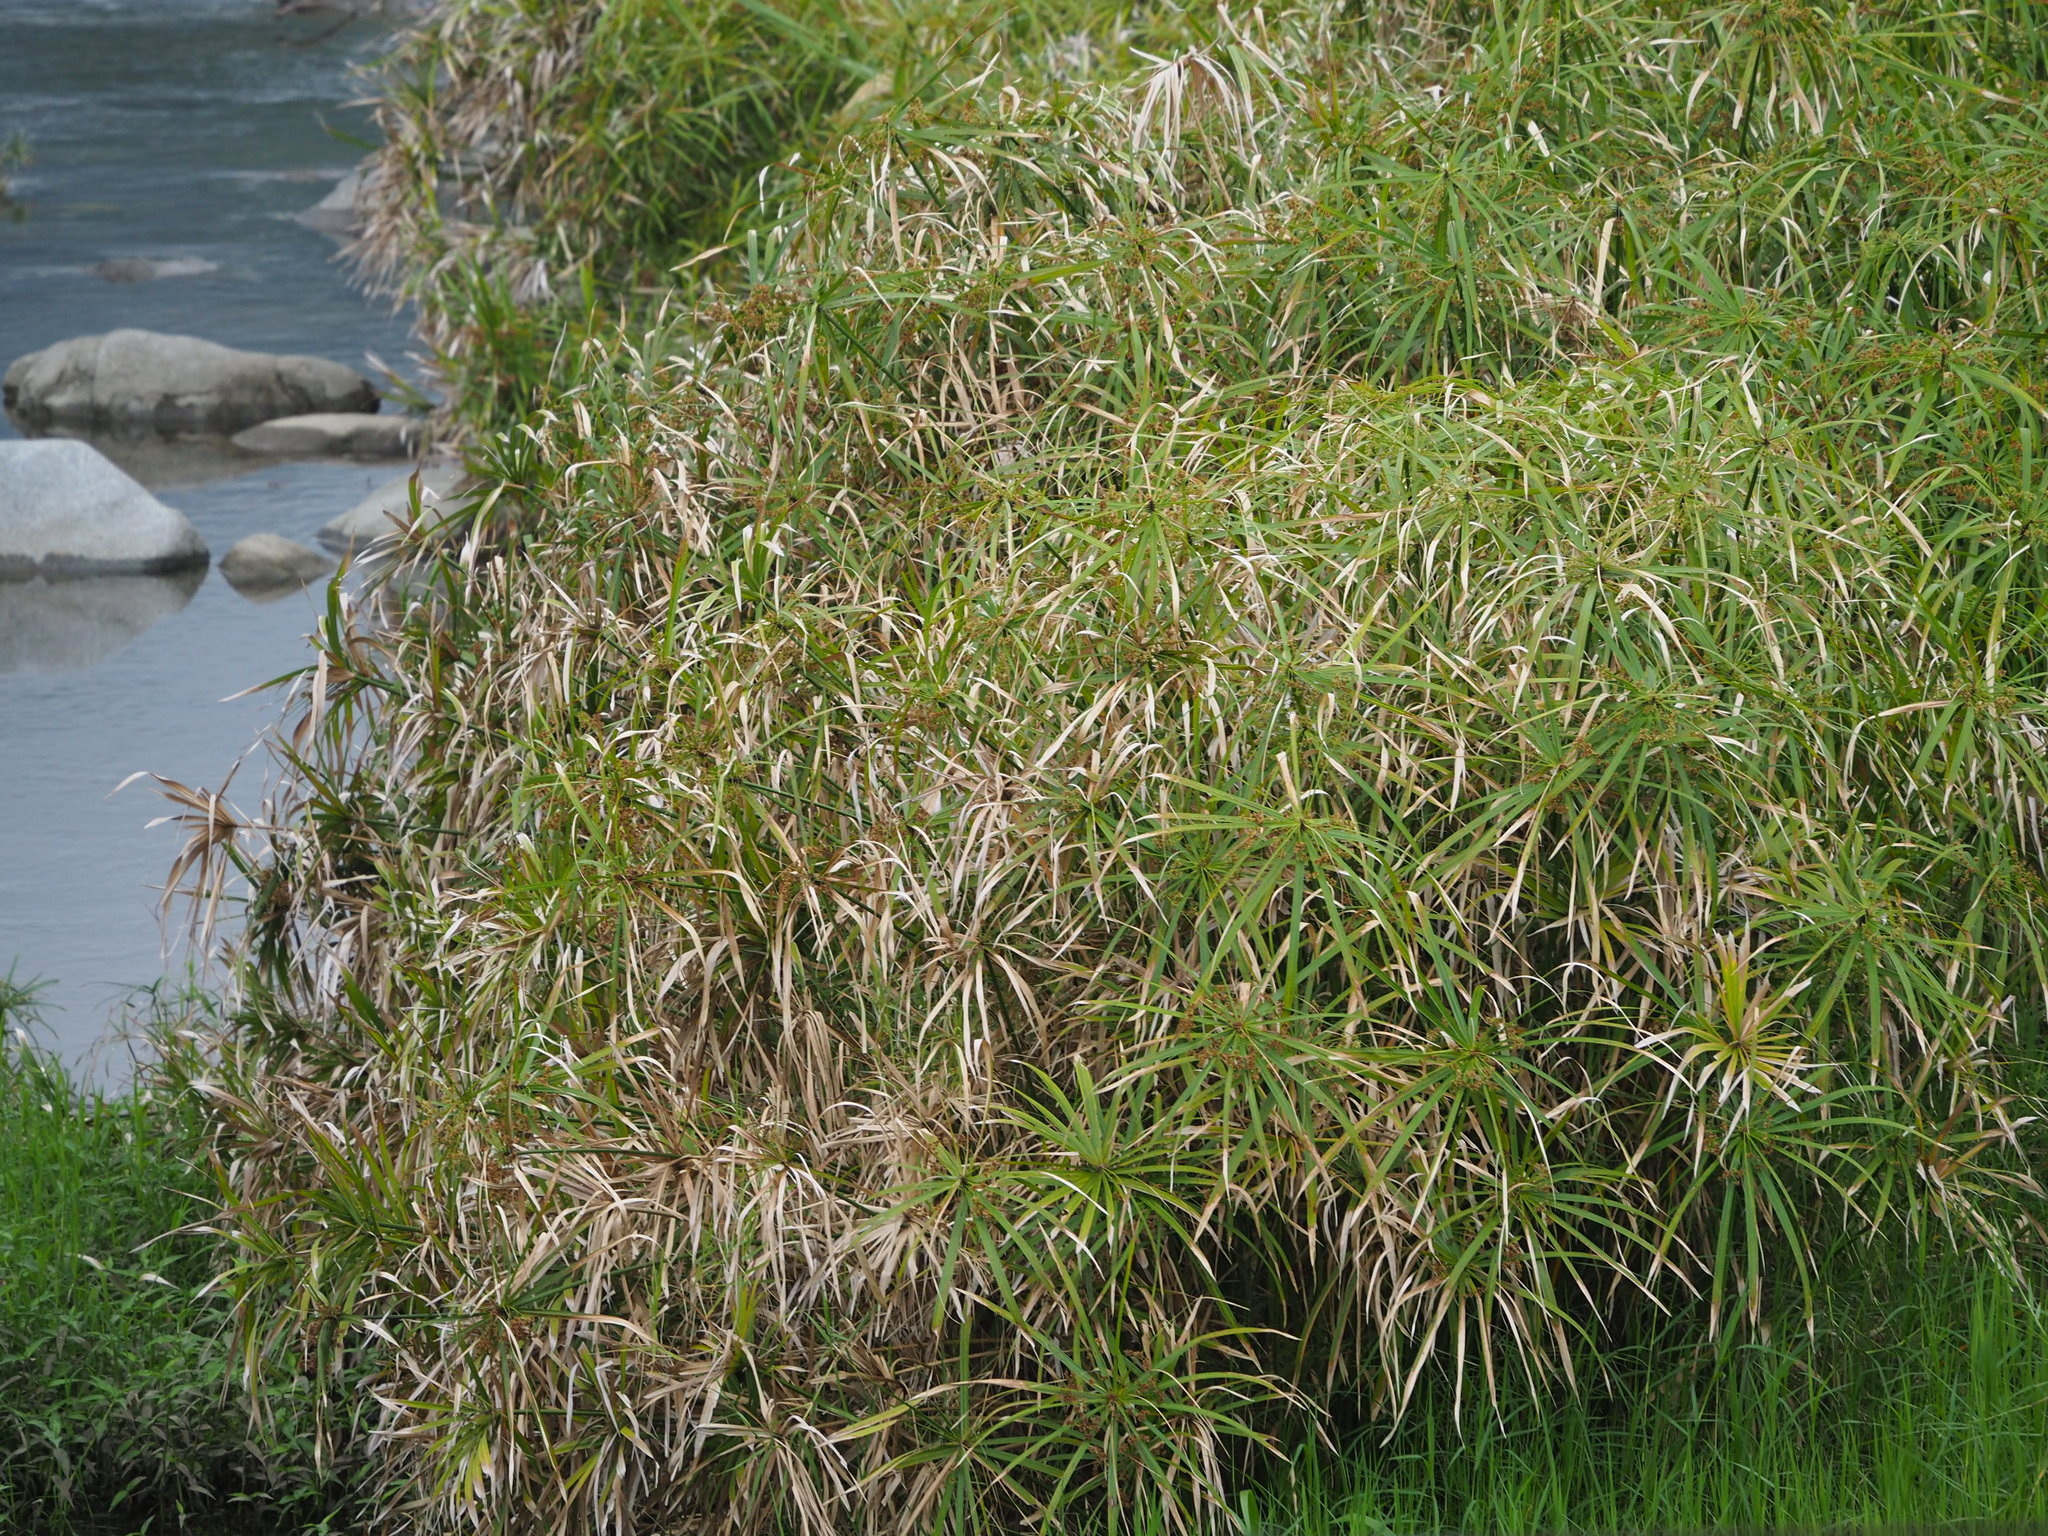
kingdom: Plantae
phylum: Tracheophyta
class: Liliopsida
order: Poales
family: Cyperaceae
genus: Cyperus
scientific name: Cyperus alternifolius
